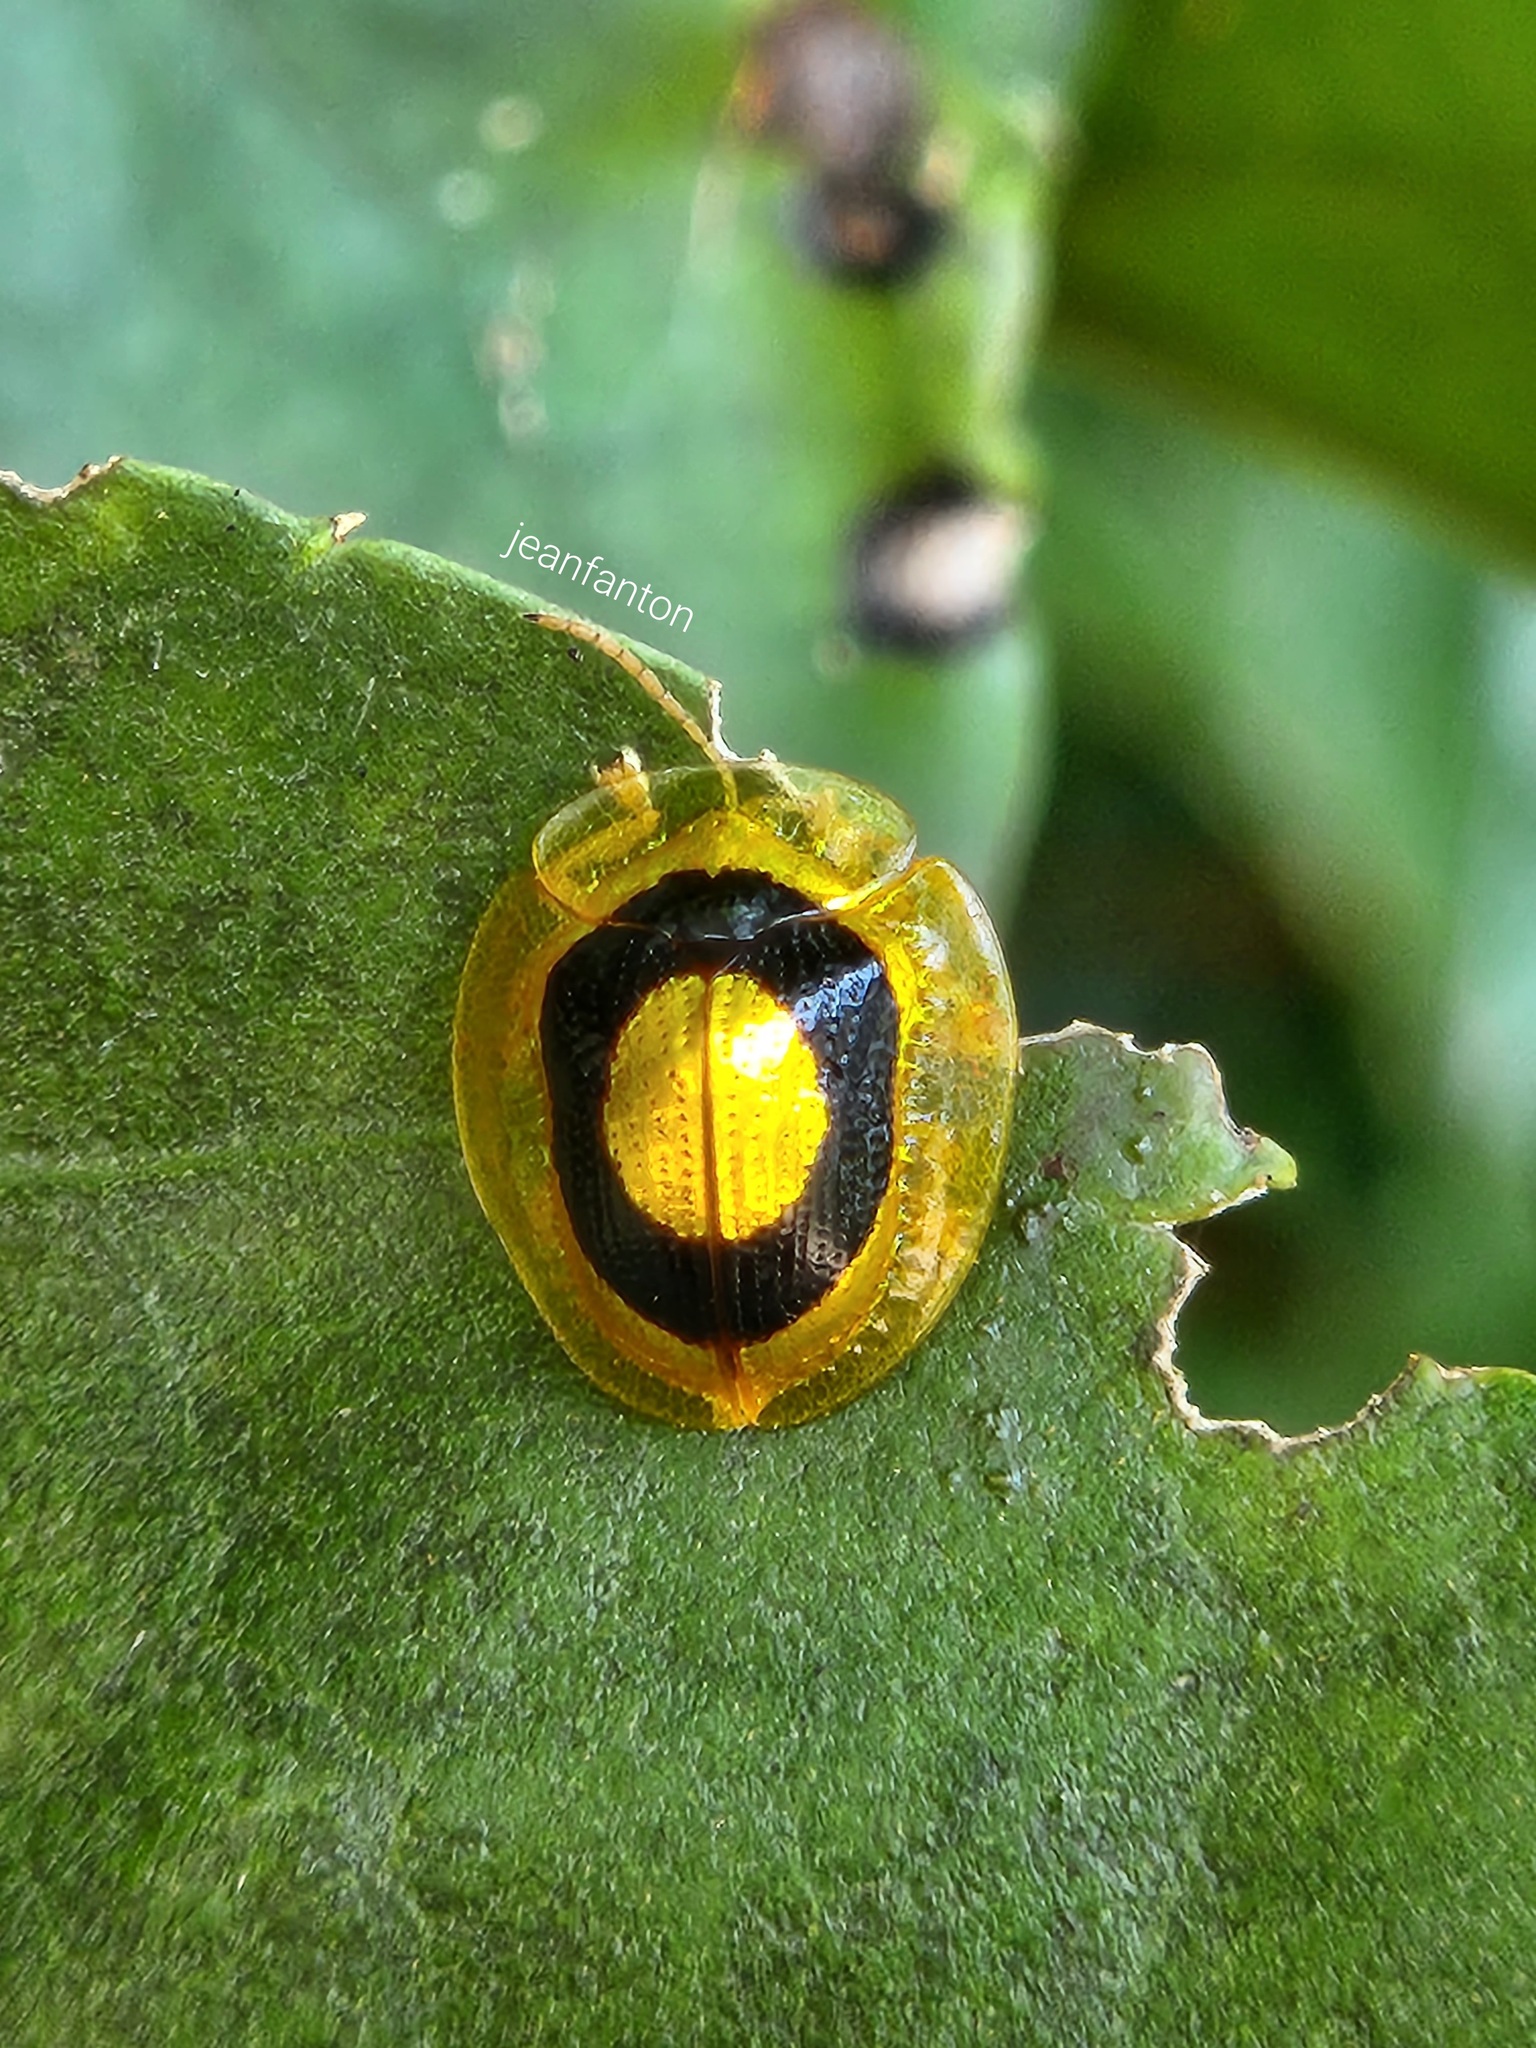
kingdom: Animalia
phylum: Arthropoda
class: Insecta
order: Coleoptera
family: Chrysomelidae
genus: Charidotis
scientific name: Charidotis circumducta
